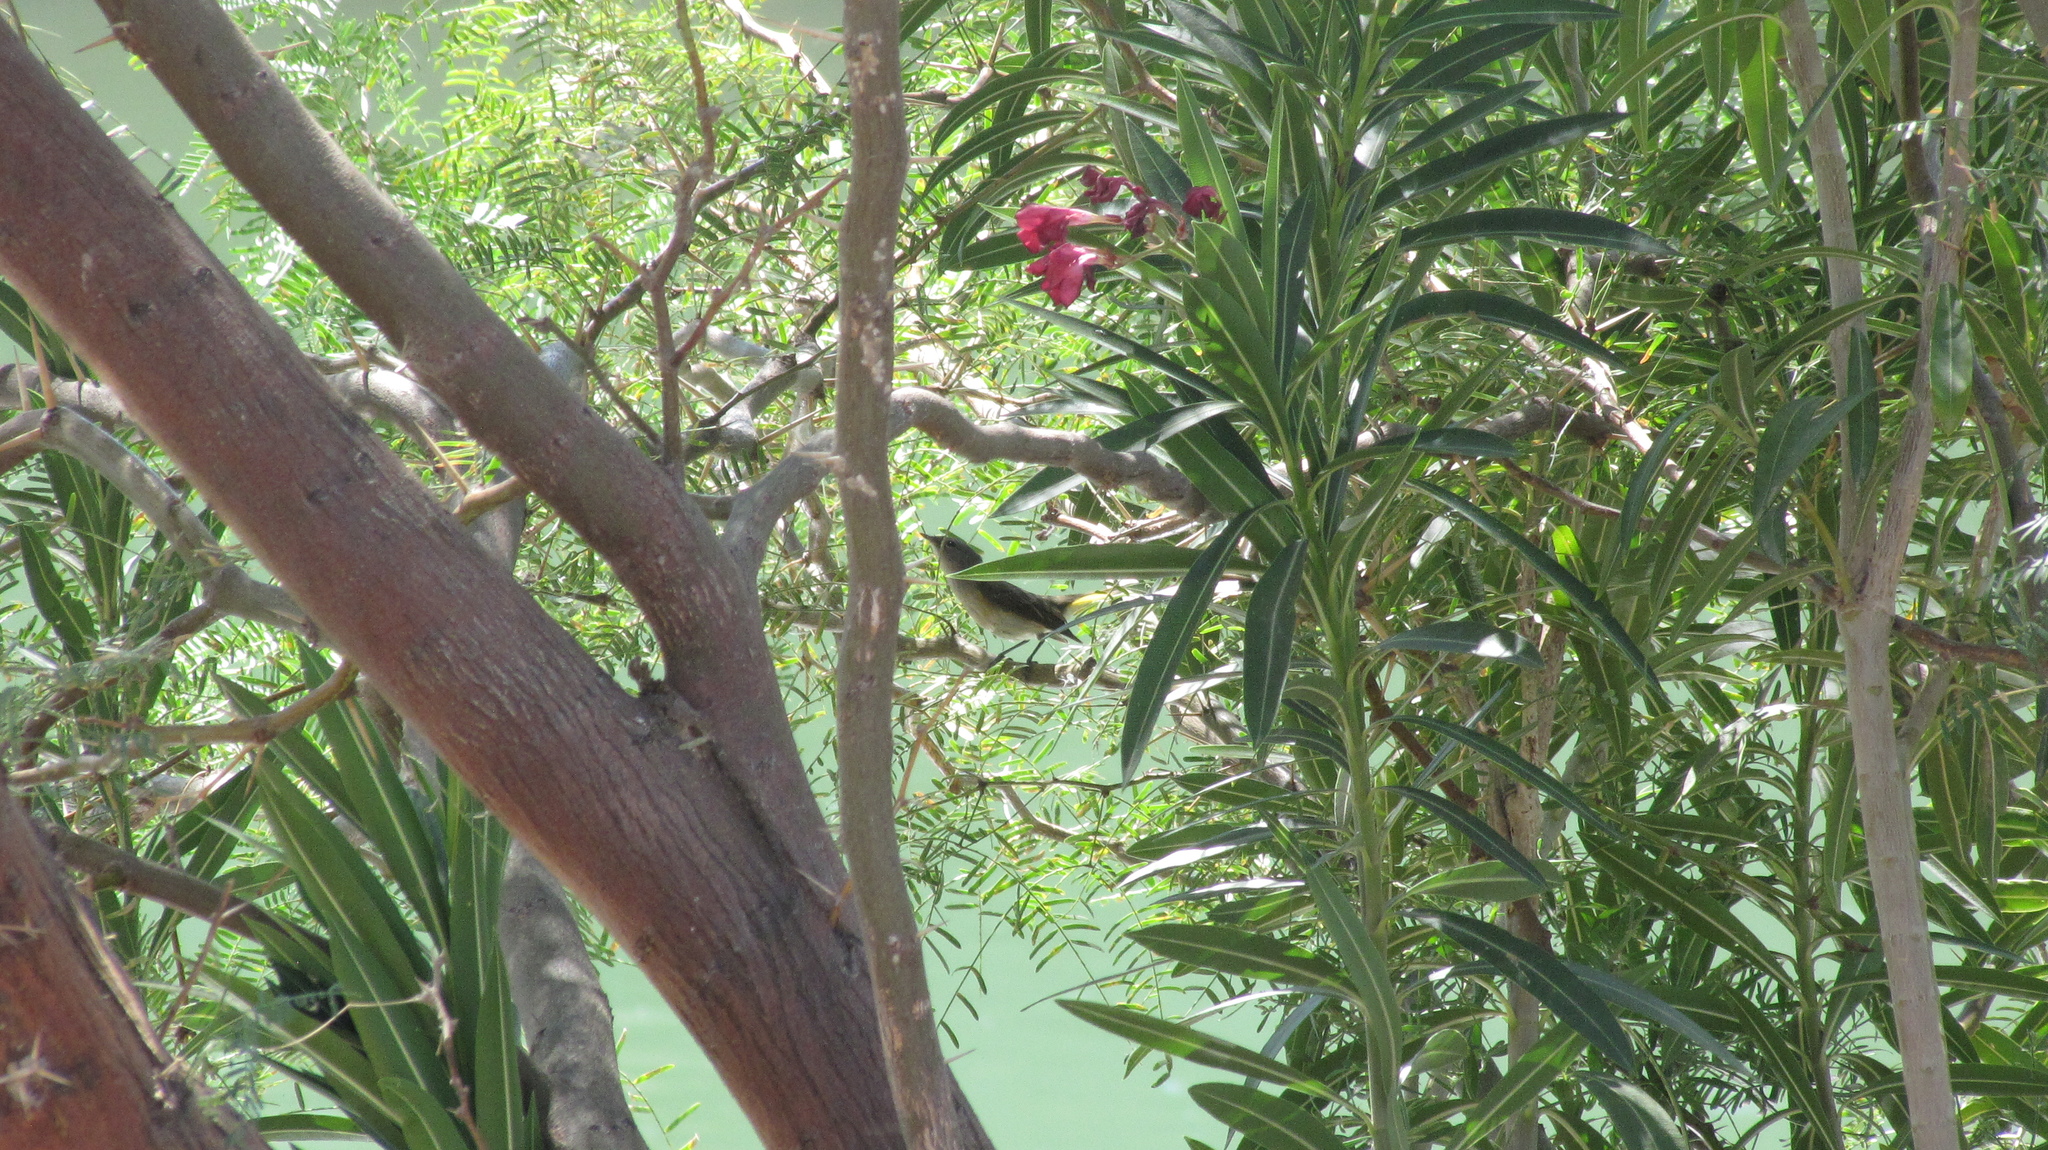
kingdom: Animalia
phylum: Chordata
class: Aves
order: Passeriformes
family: Parulidae
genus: Setophaga
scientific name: Setophaga ruticilla
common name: American redstart
